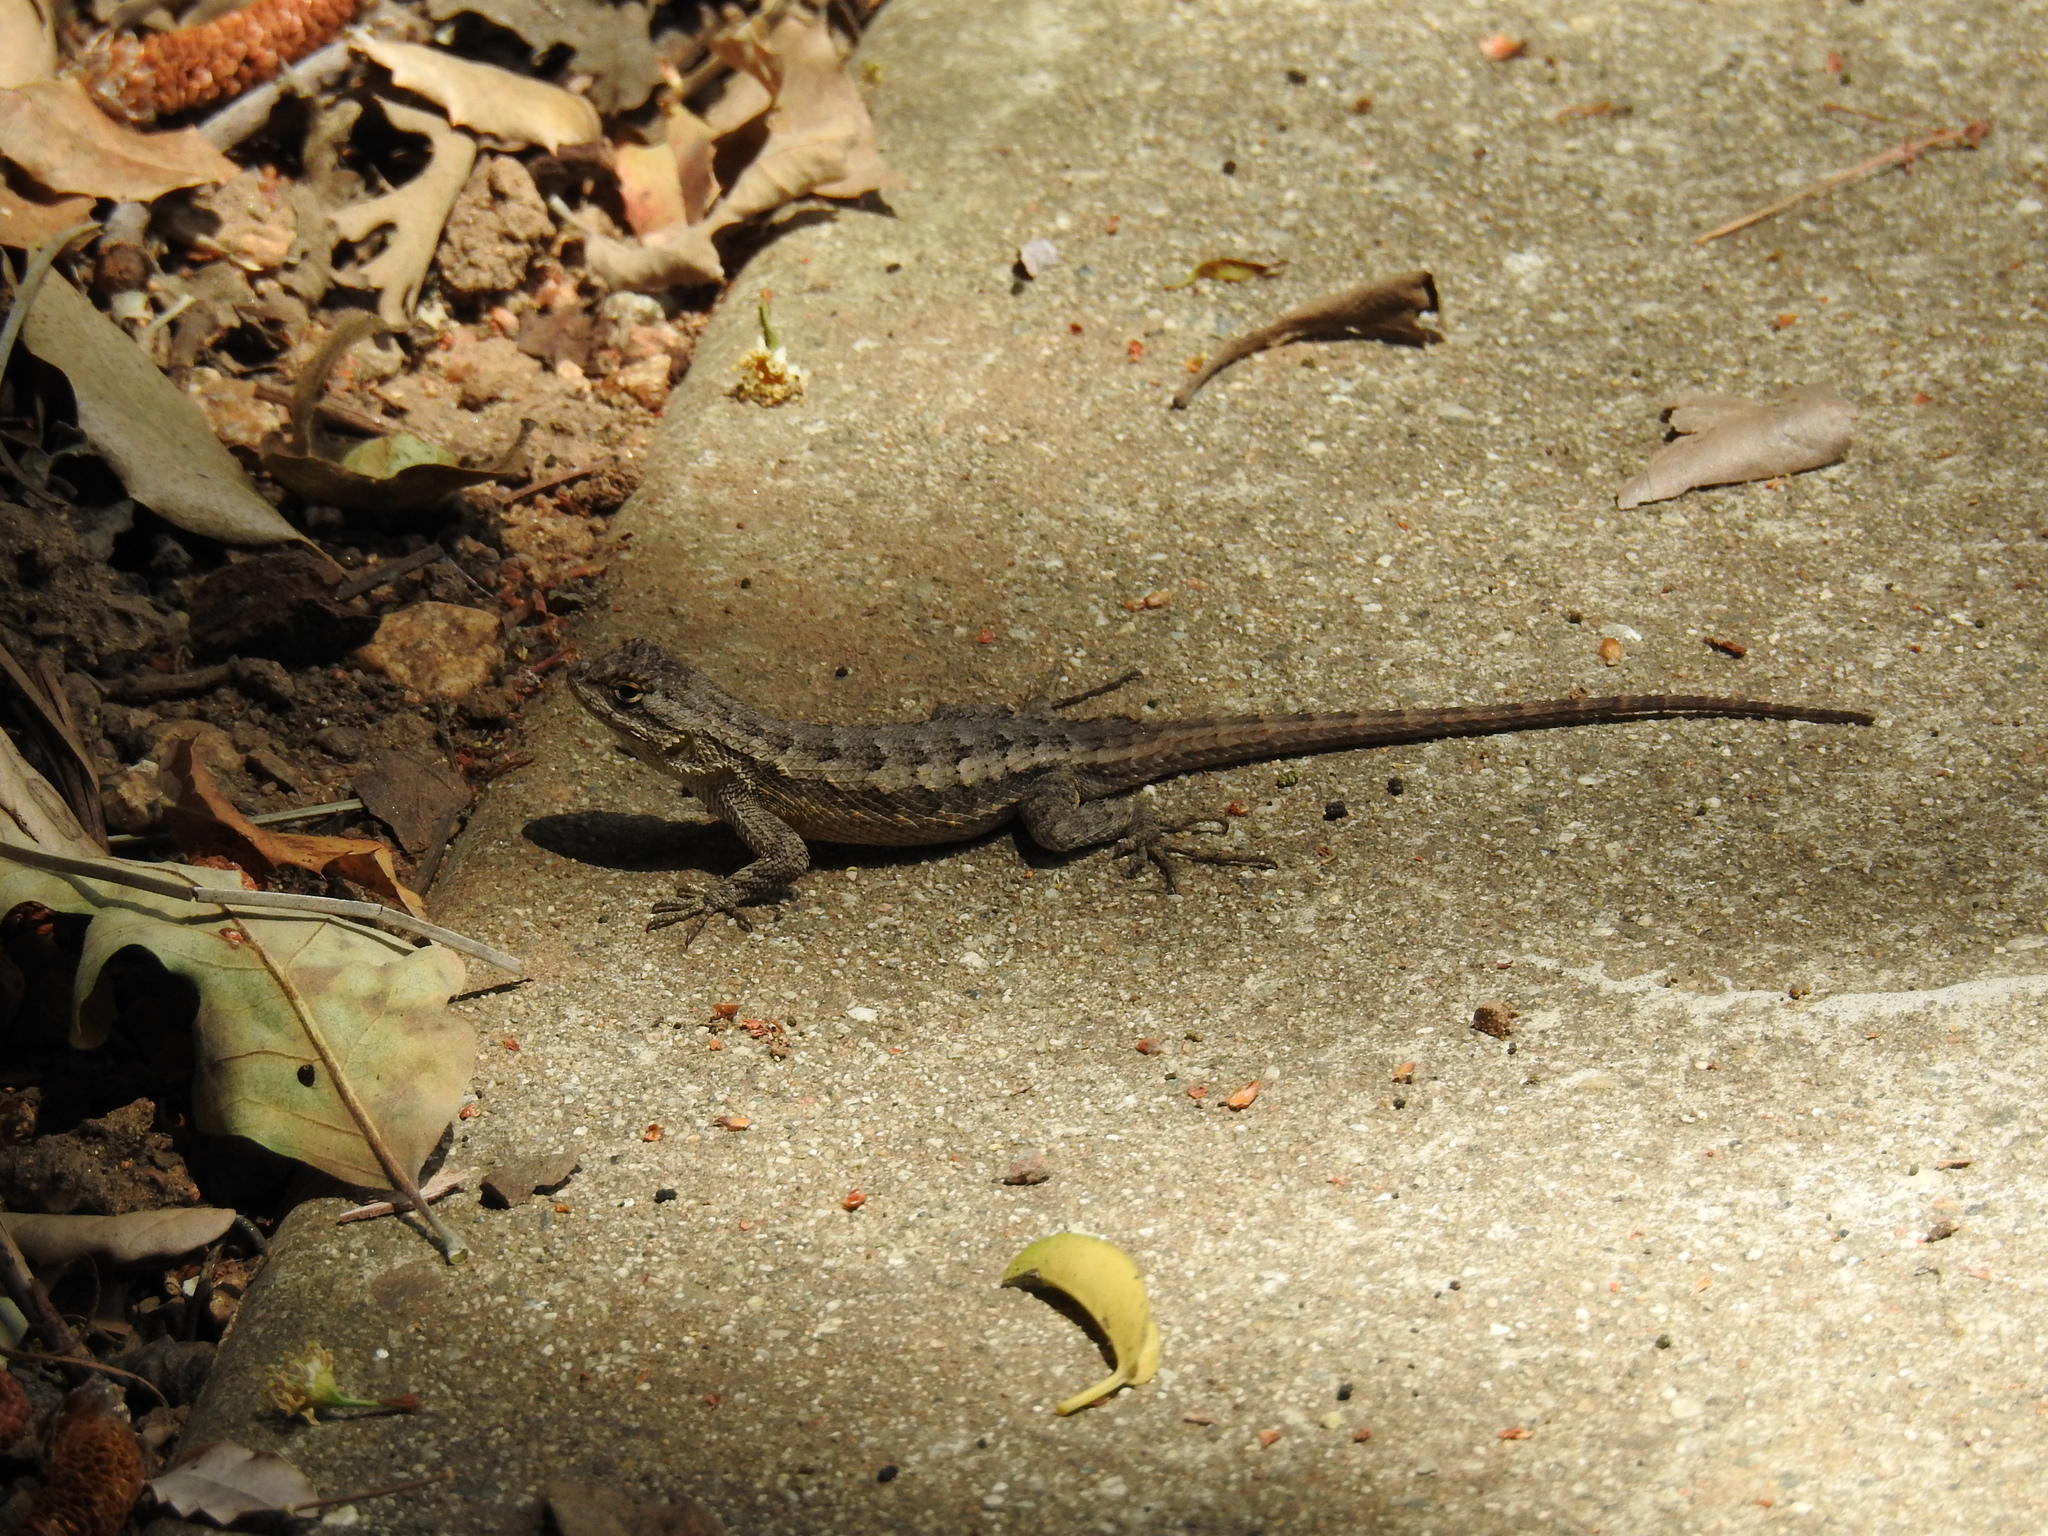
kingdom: Animalia
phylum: Chordata
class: Squamata
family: Phrynosomatidae
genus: Sceloporus
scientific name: Sceloporus occidentalis
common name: Western fence lizard
